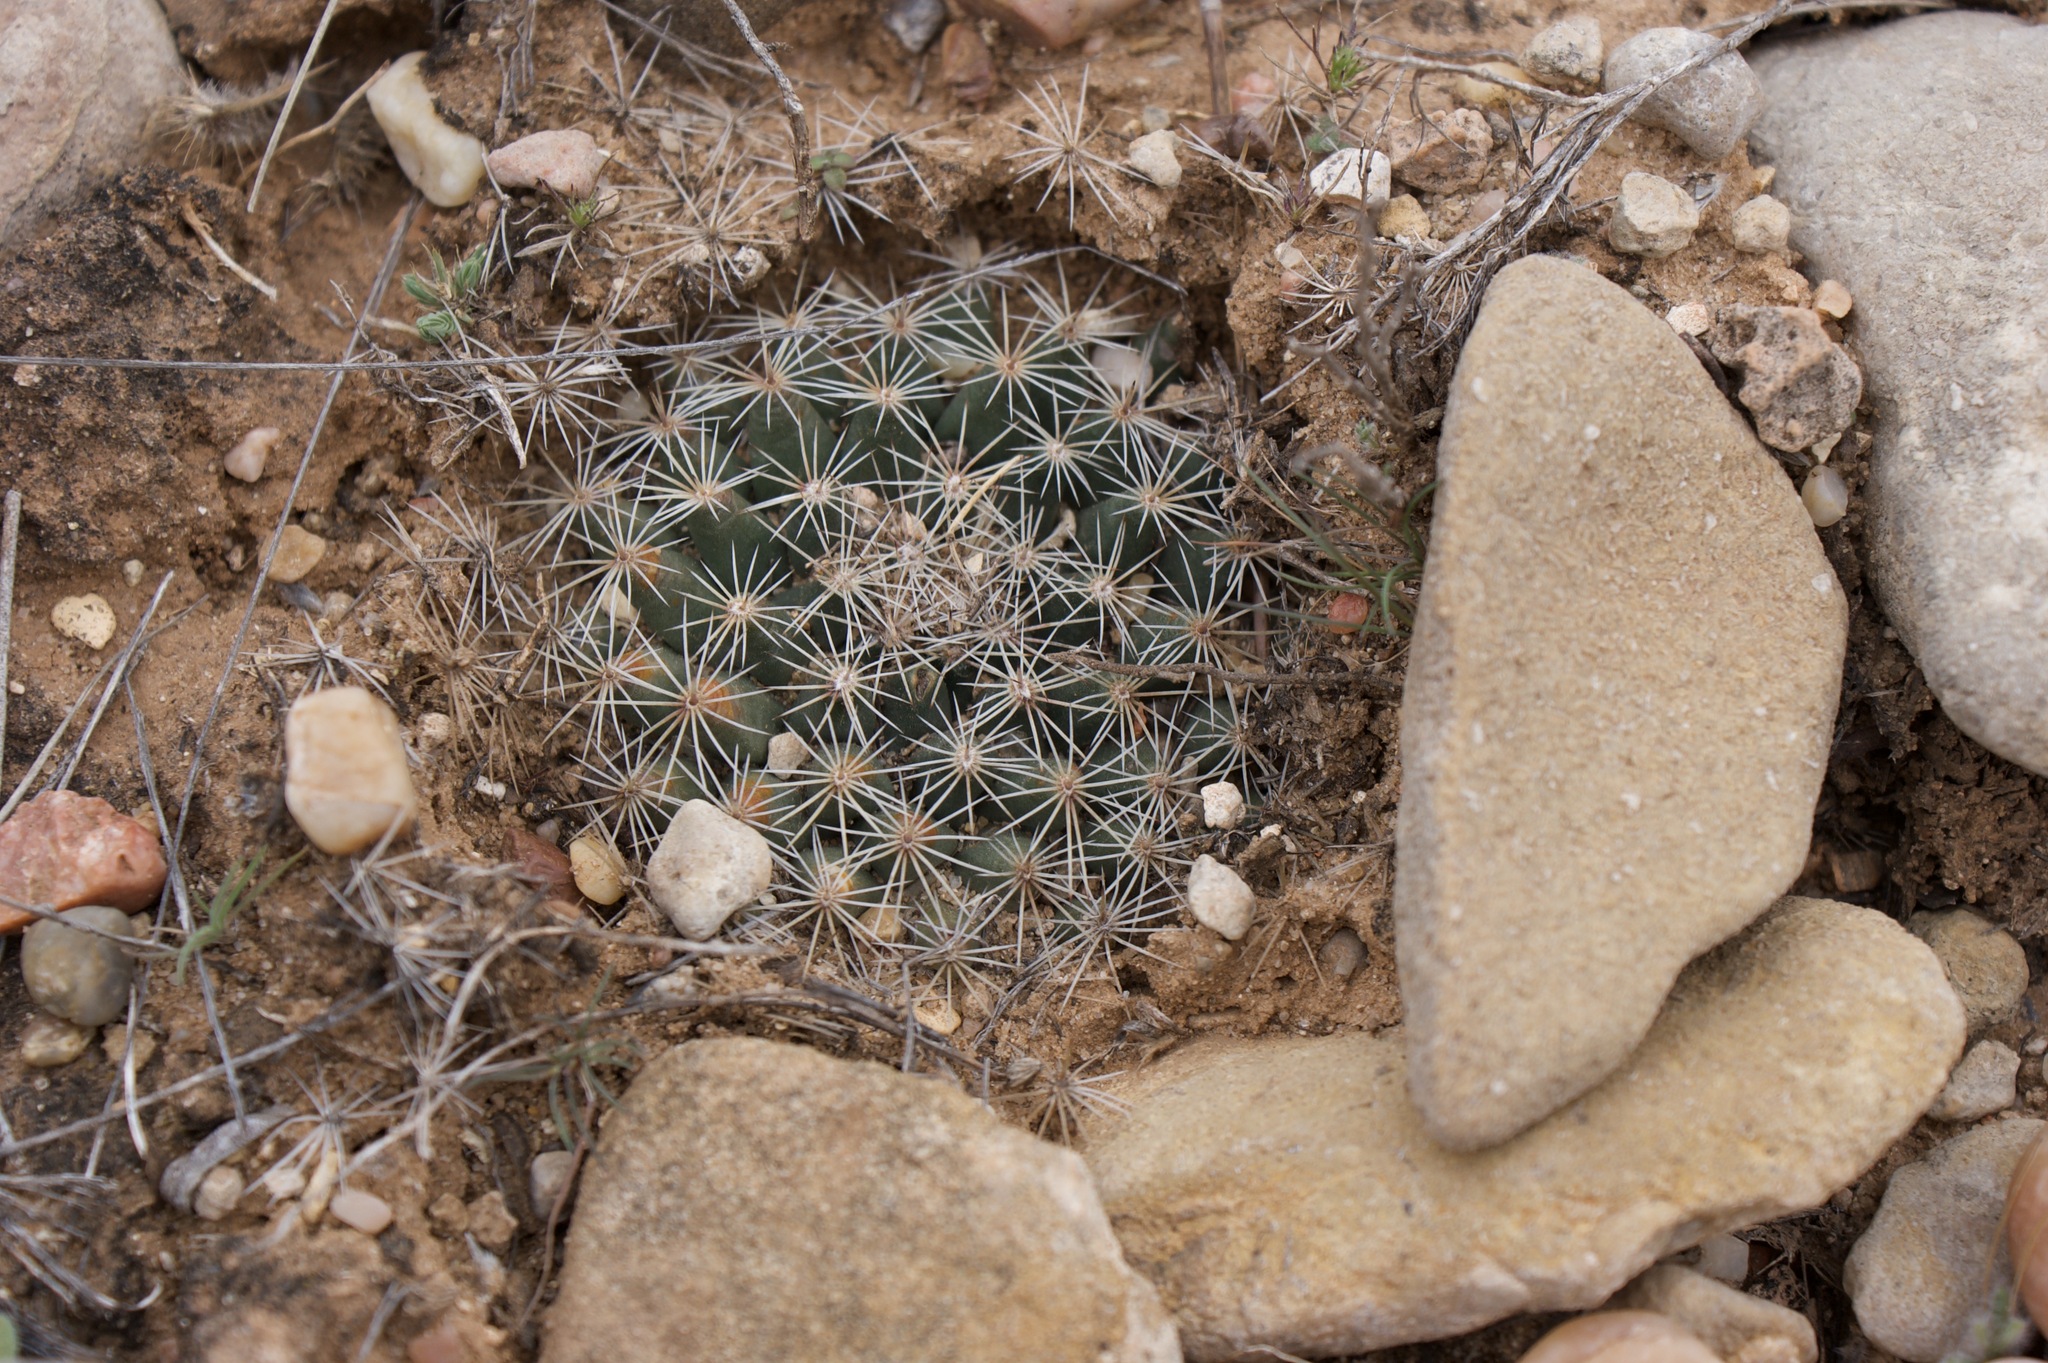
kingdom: Plantae
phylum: Tracheophyta
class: Magnoliopsida
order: Caryophyllales
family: Cactaceae
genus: Mammillaria
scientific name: Mammillaria heyderi
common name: Little nipple cactus
